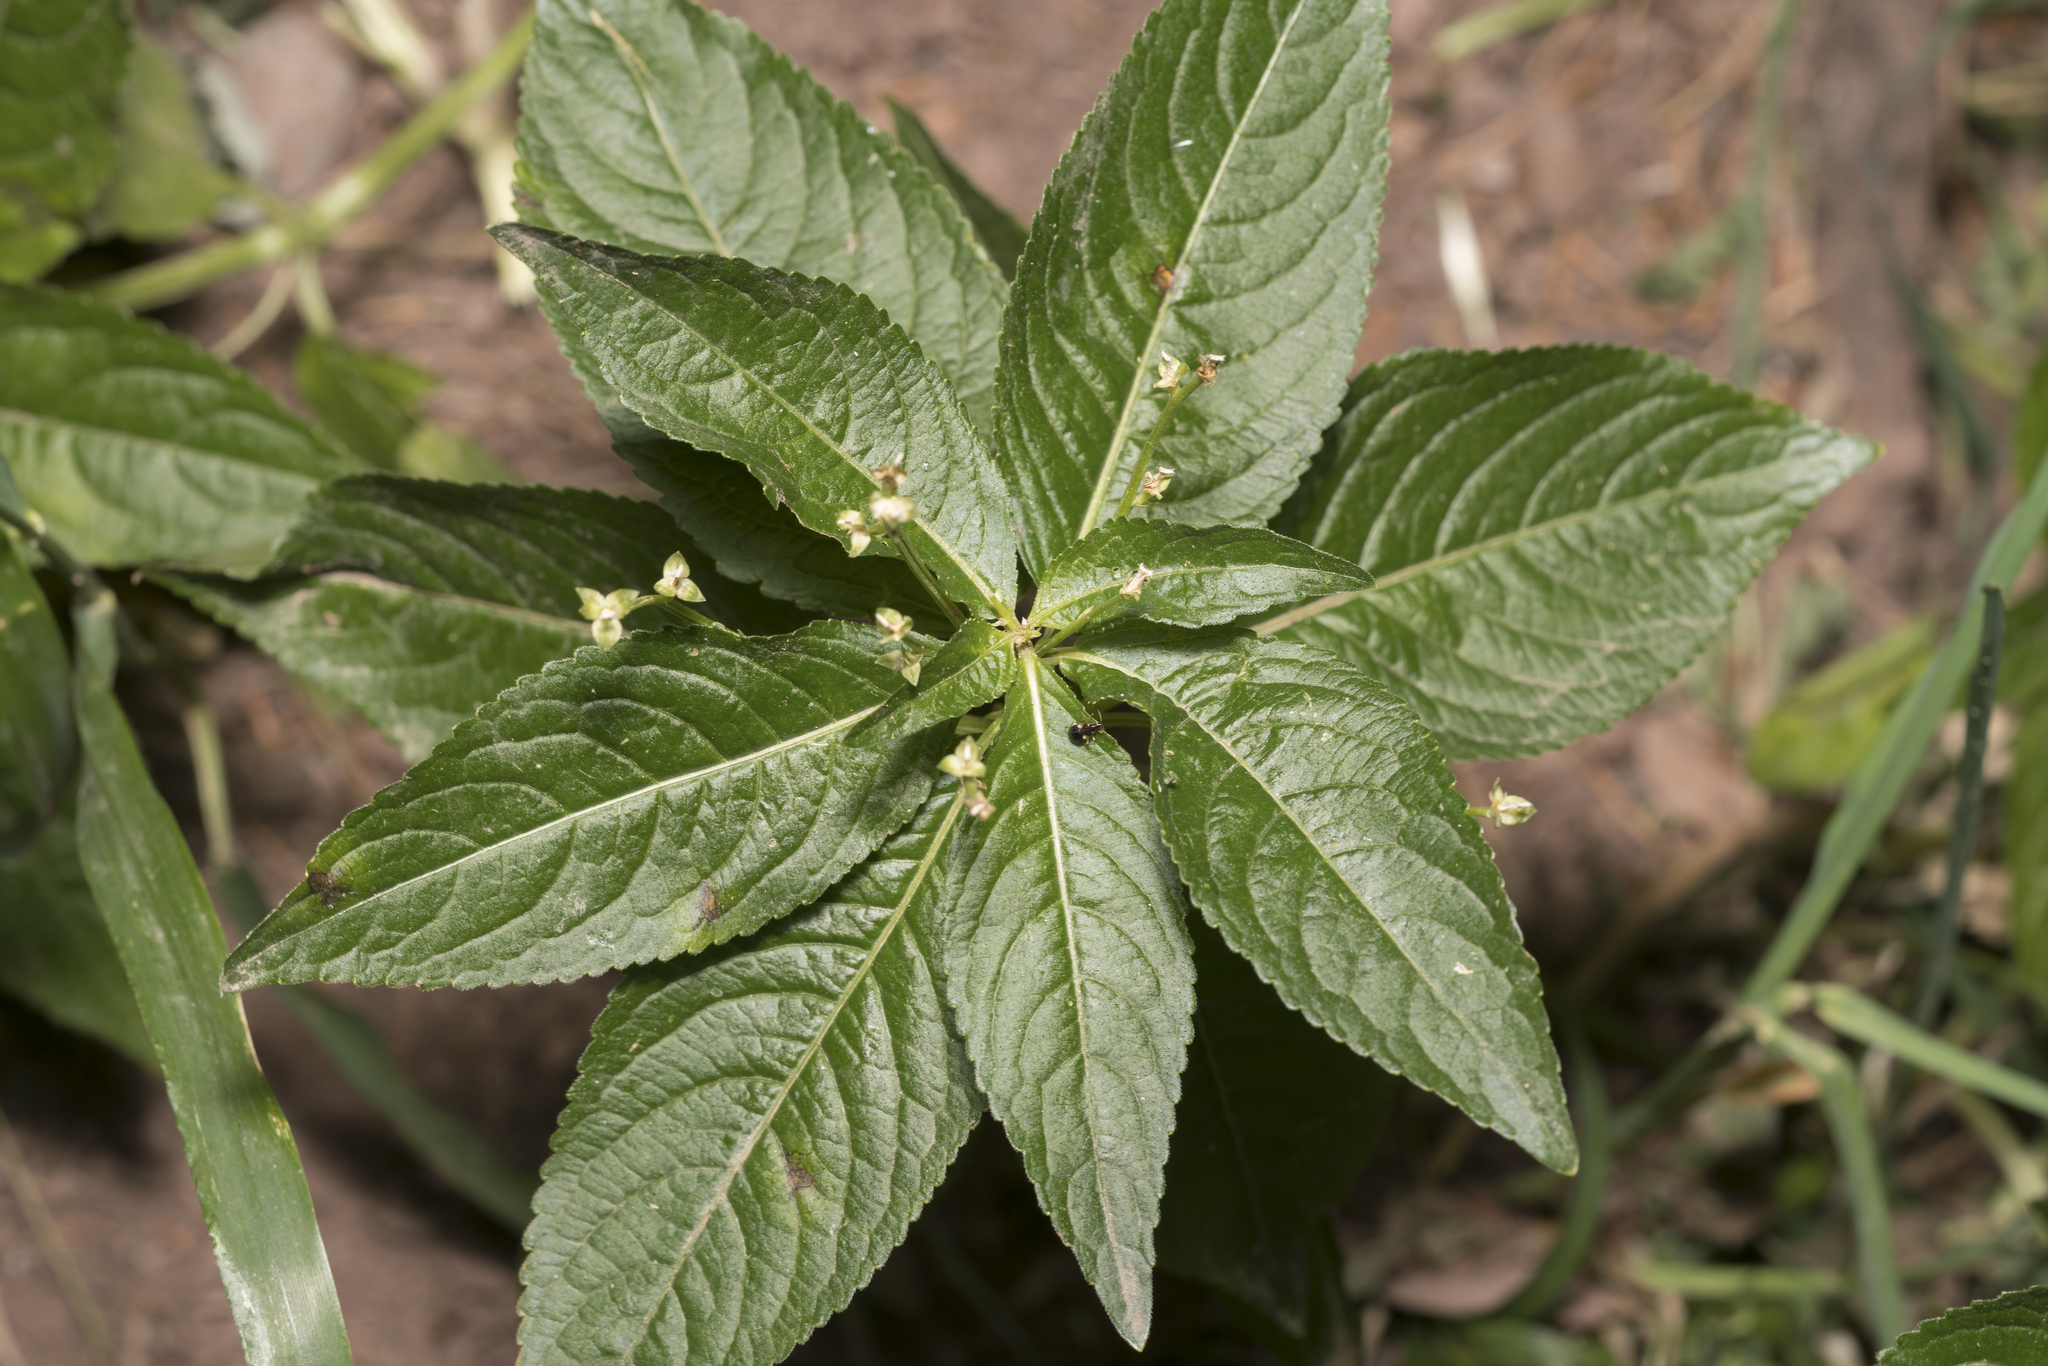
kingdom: Plantae
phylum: Tracheophyta
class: Magnoliopsida
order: Malpighiales
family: Euphorbiaceae
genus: Mercurialis
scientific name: Mercurialis perennis
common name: Dog mercury
